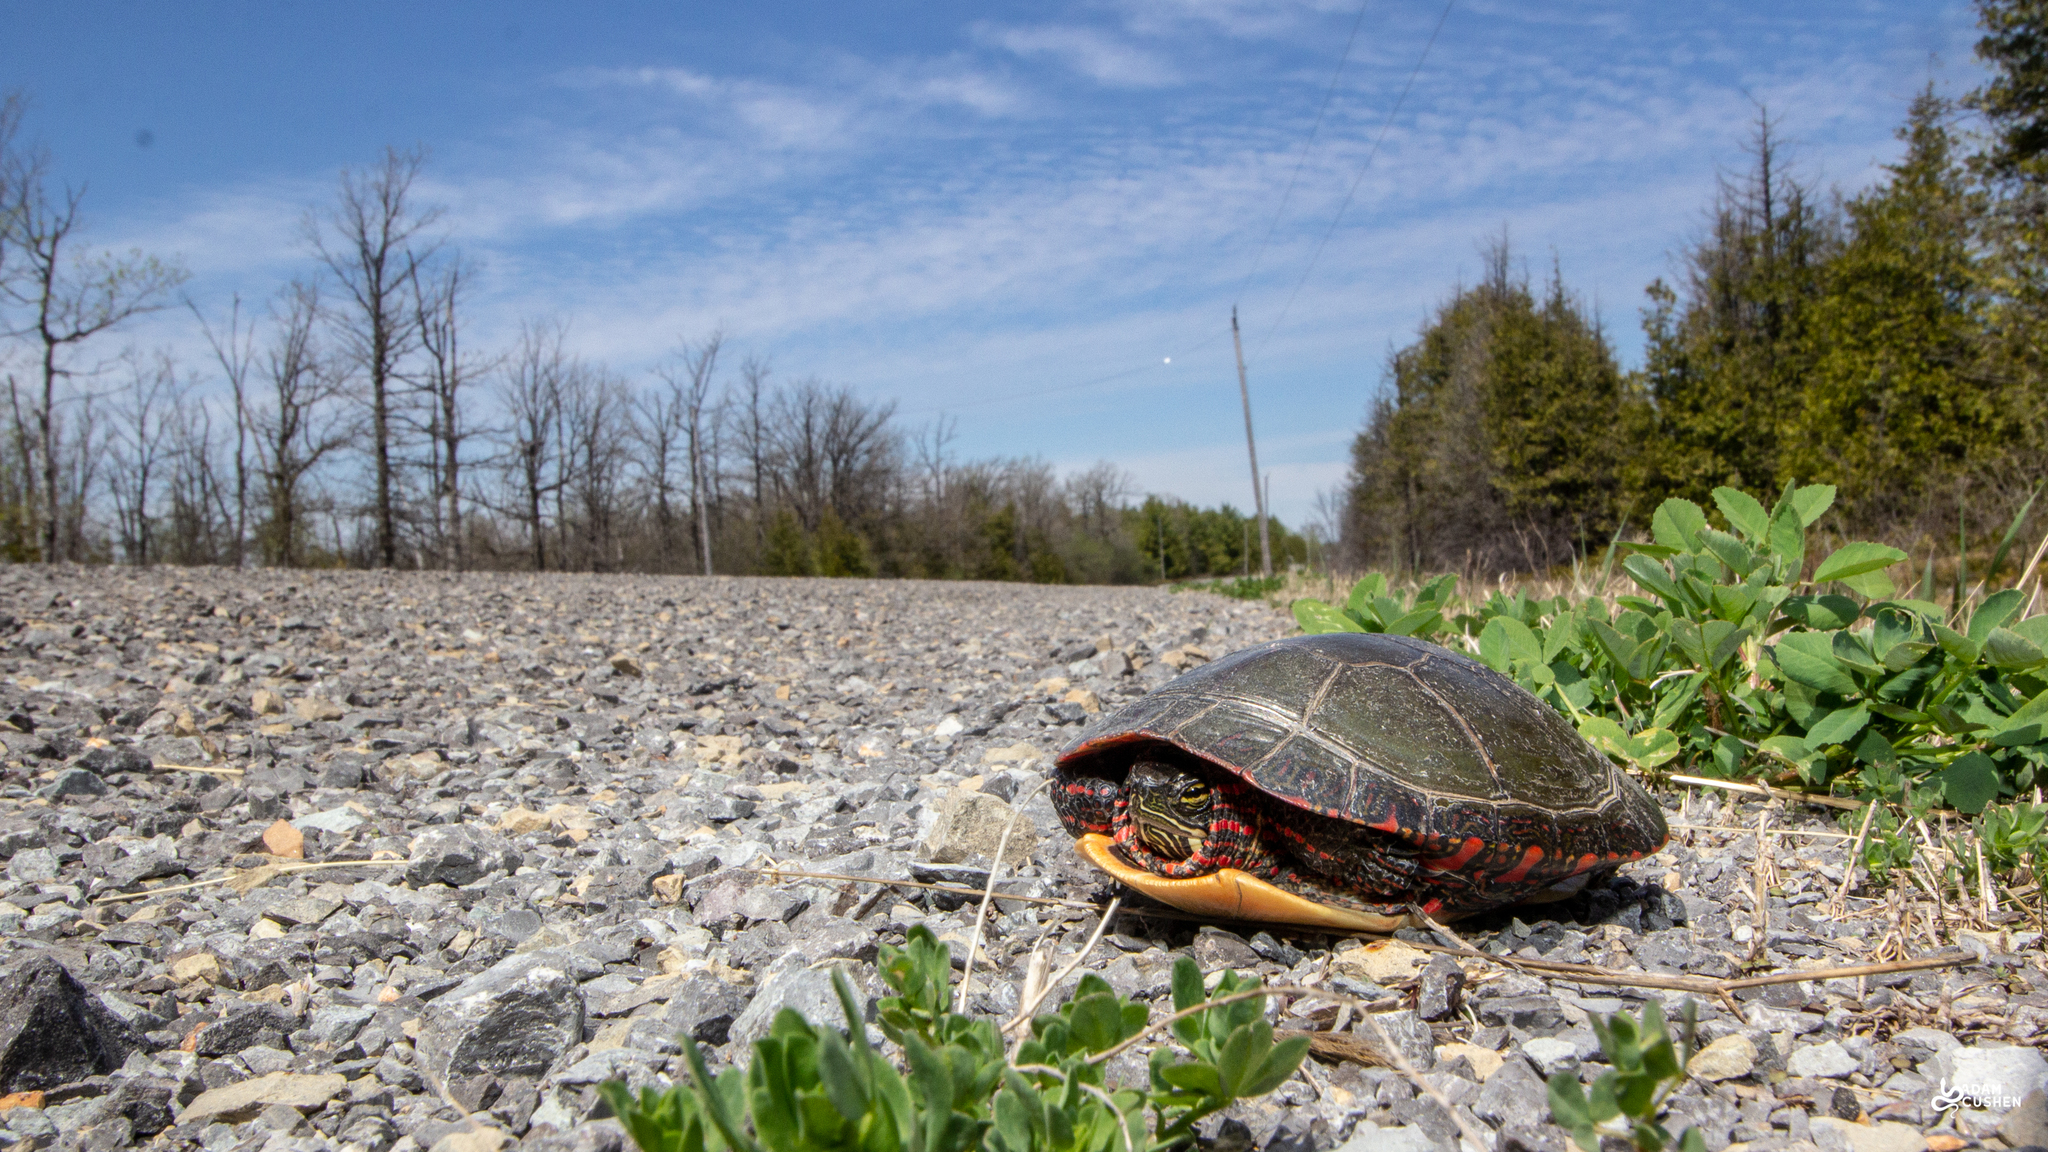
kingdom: Animalia
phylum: Chordata
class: Testudines
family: Emydidae
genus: Chrysemys
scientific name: Chrysemys picta
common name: Painted turtle
